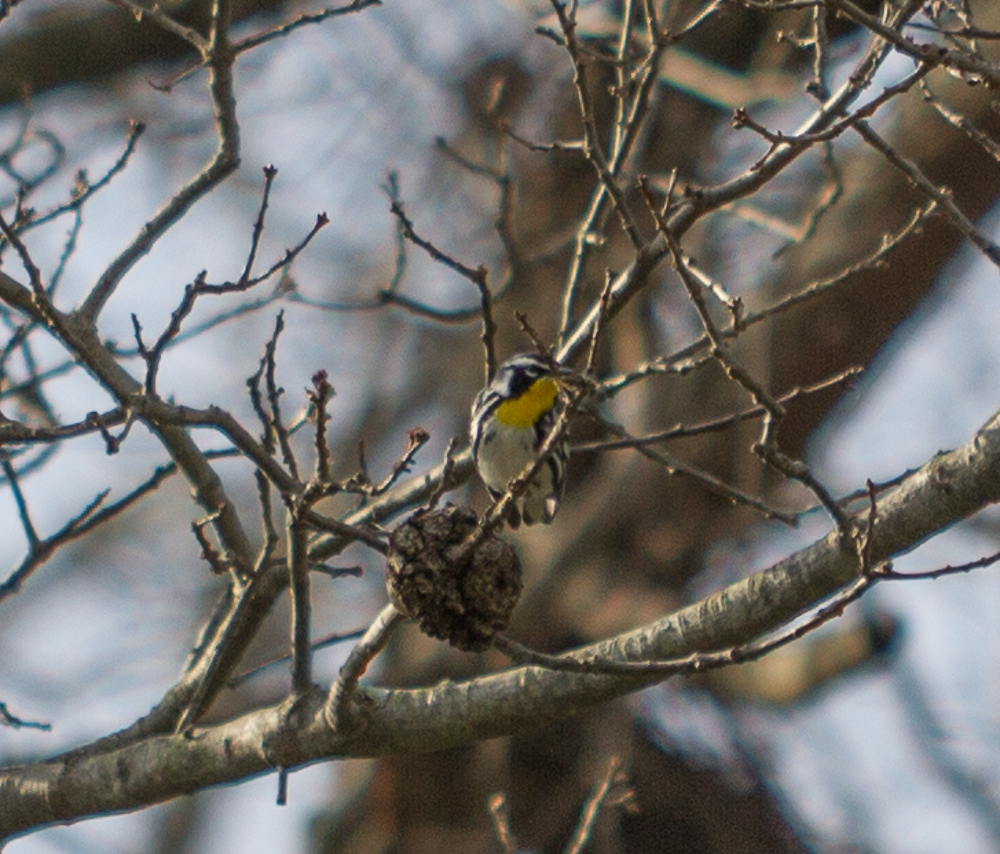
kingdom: Animalia
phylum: Chordata
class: Aves
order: Passeriformes
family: Parulidae
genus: Setophaga
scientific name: Setophaga dominica
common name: Yellow-throated warbler
